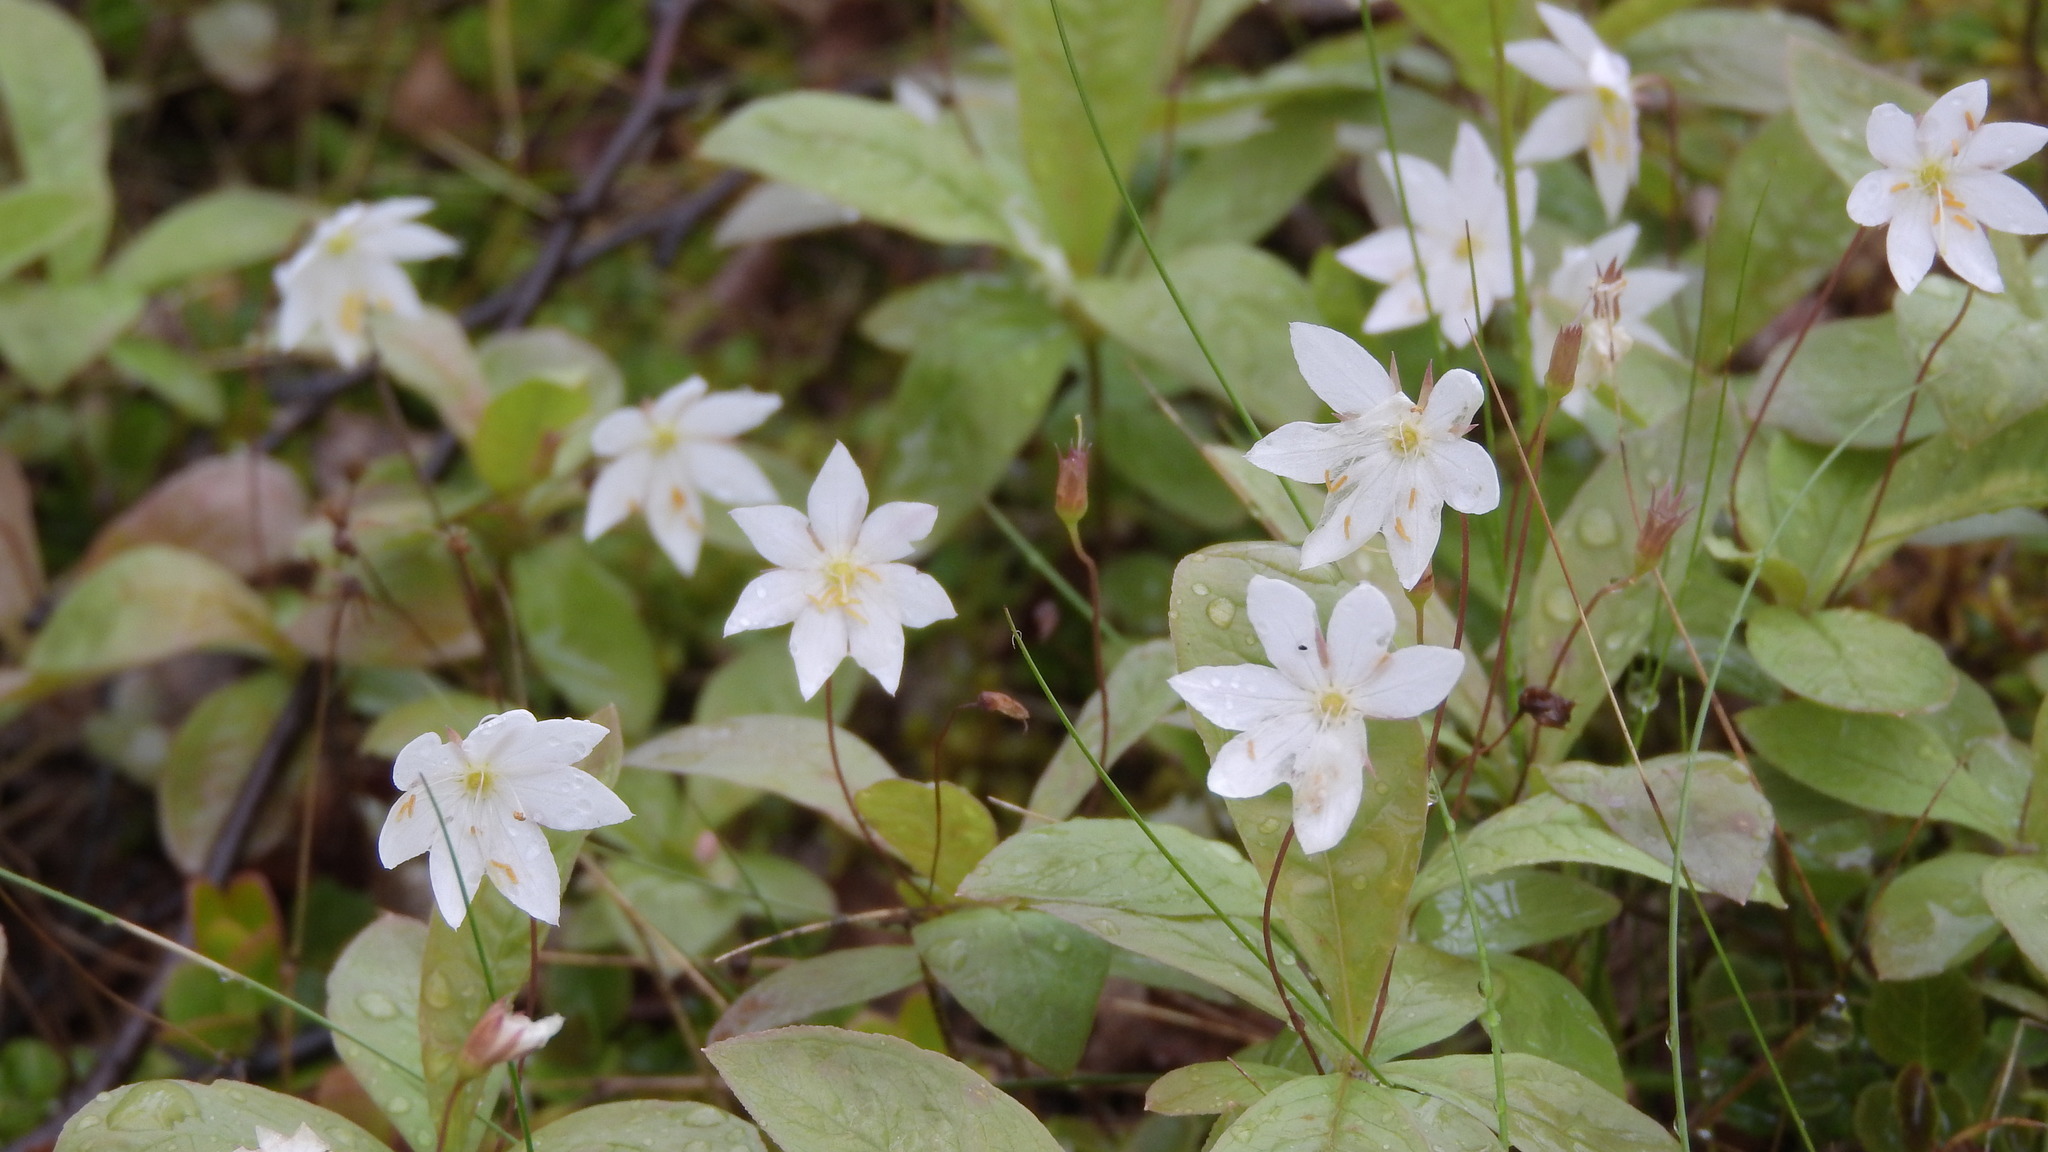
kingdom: Plantae
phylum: Tracheophyta
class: Magnoliopsida
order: Ericales
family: Primulaceae
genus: Lysimachia
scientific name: Lysimachia europaea
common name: Arctic starflower
